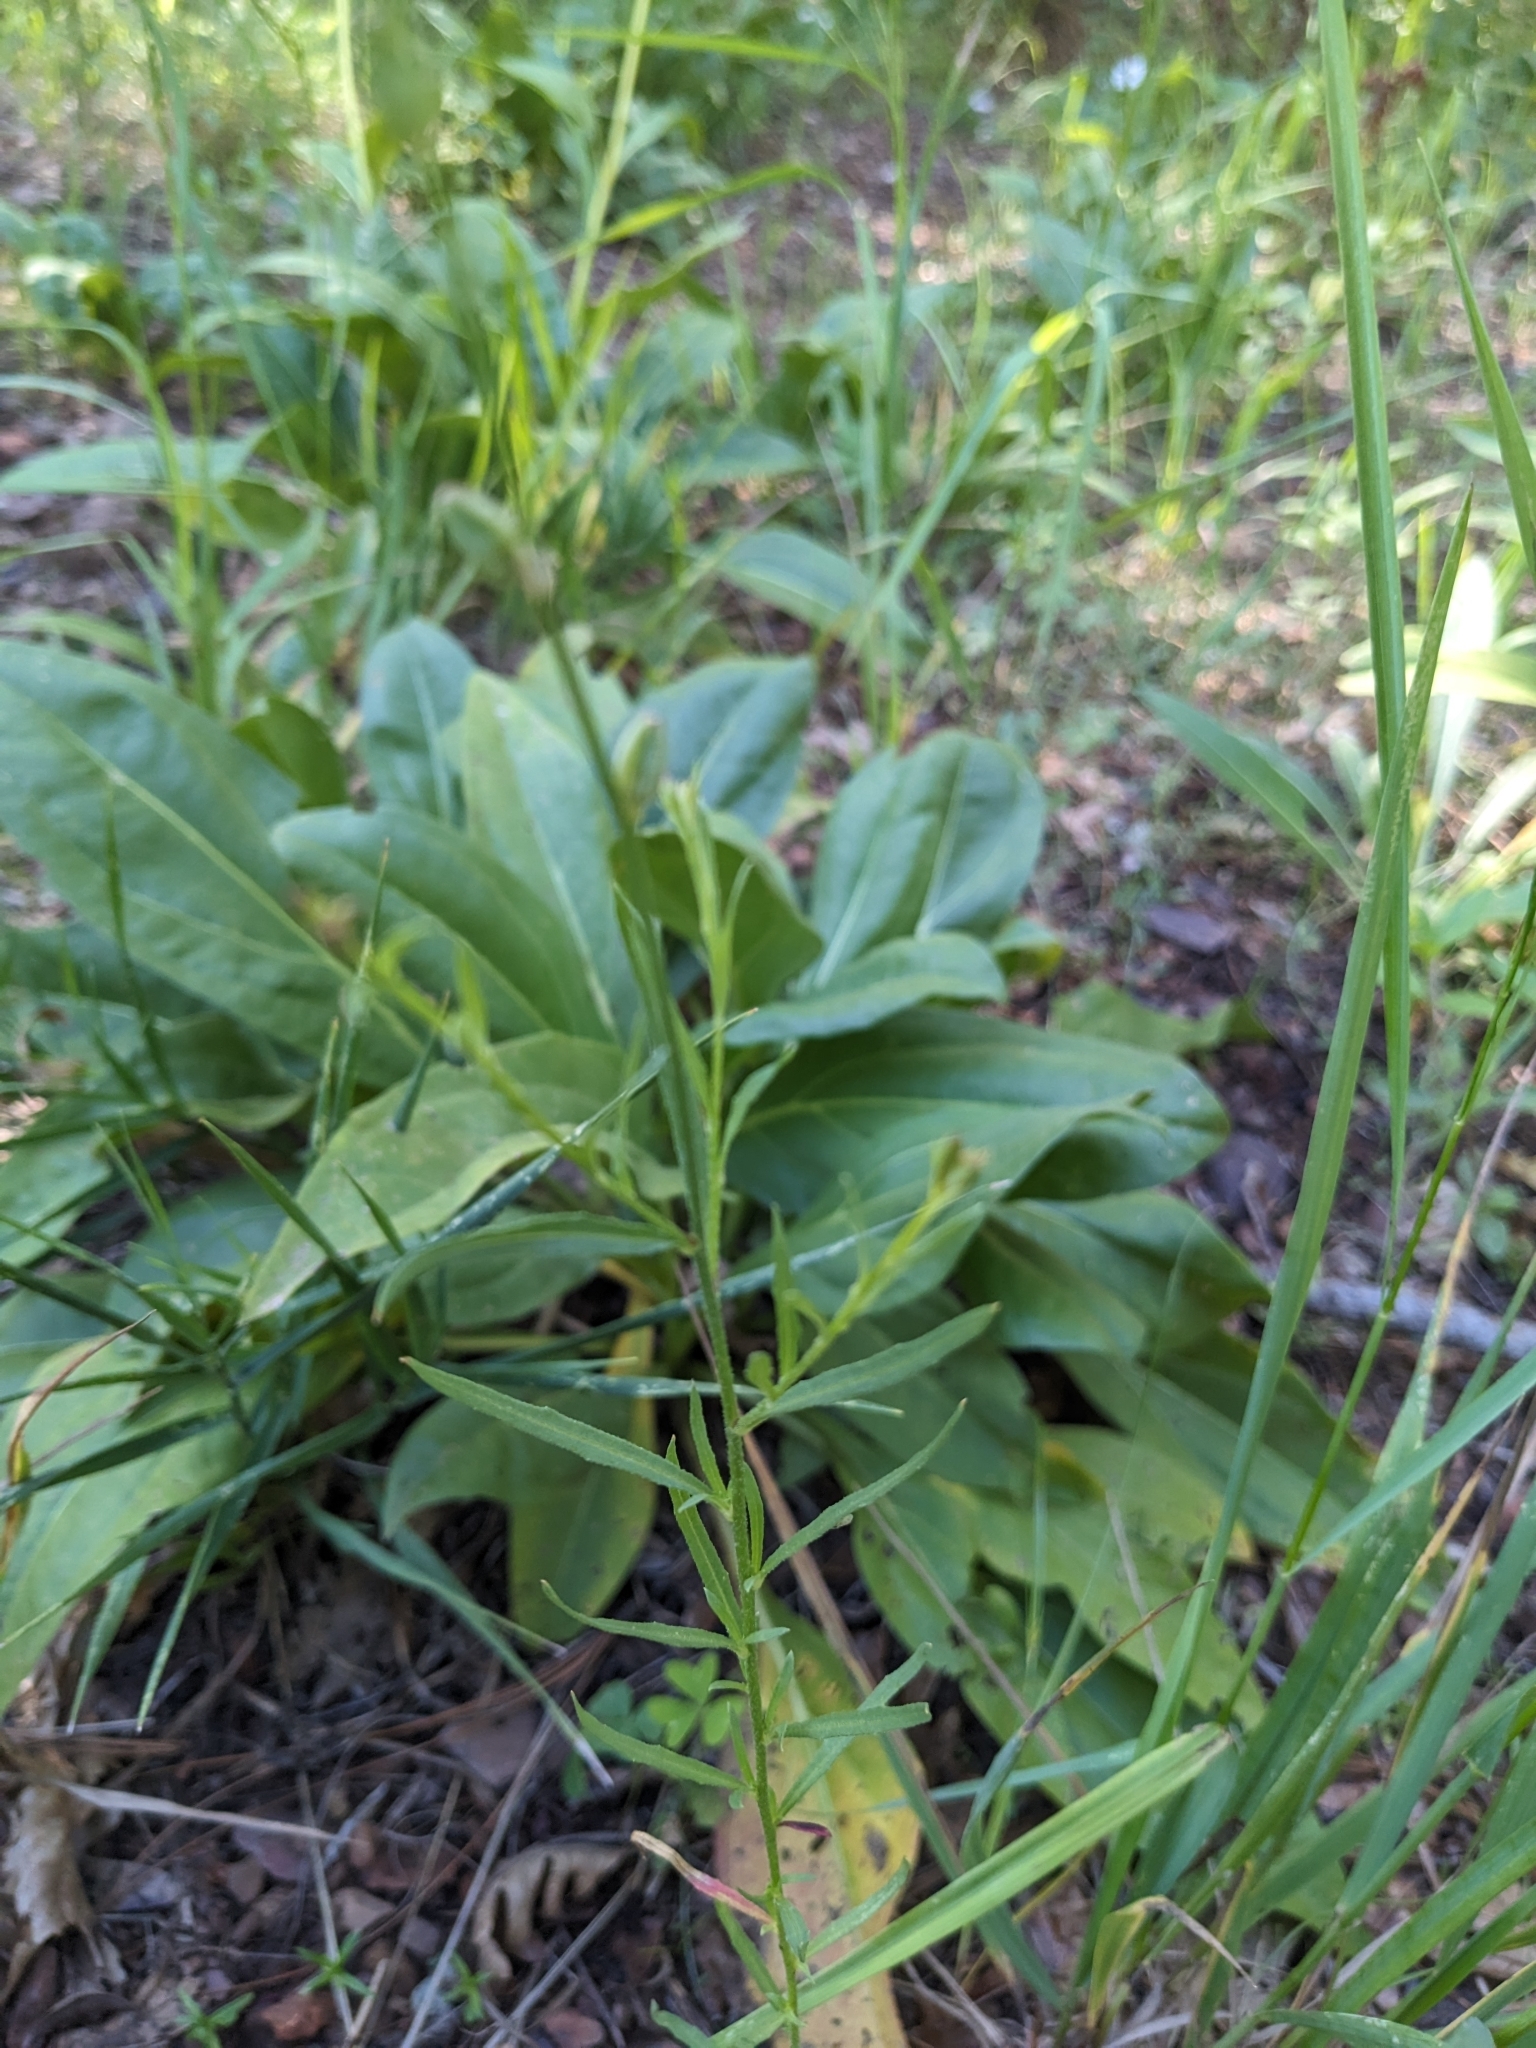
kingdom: Plantae
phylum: Tracheophyta
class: Magnoliopsida
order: Myrtales
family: Onagraceae
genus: Oenothera
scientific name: Oenothera podocarpa
